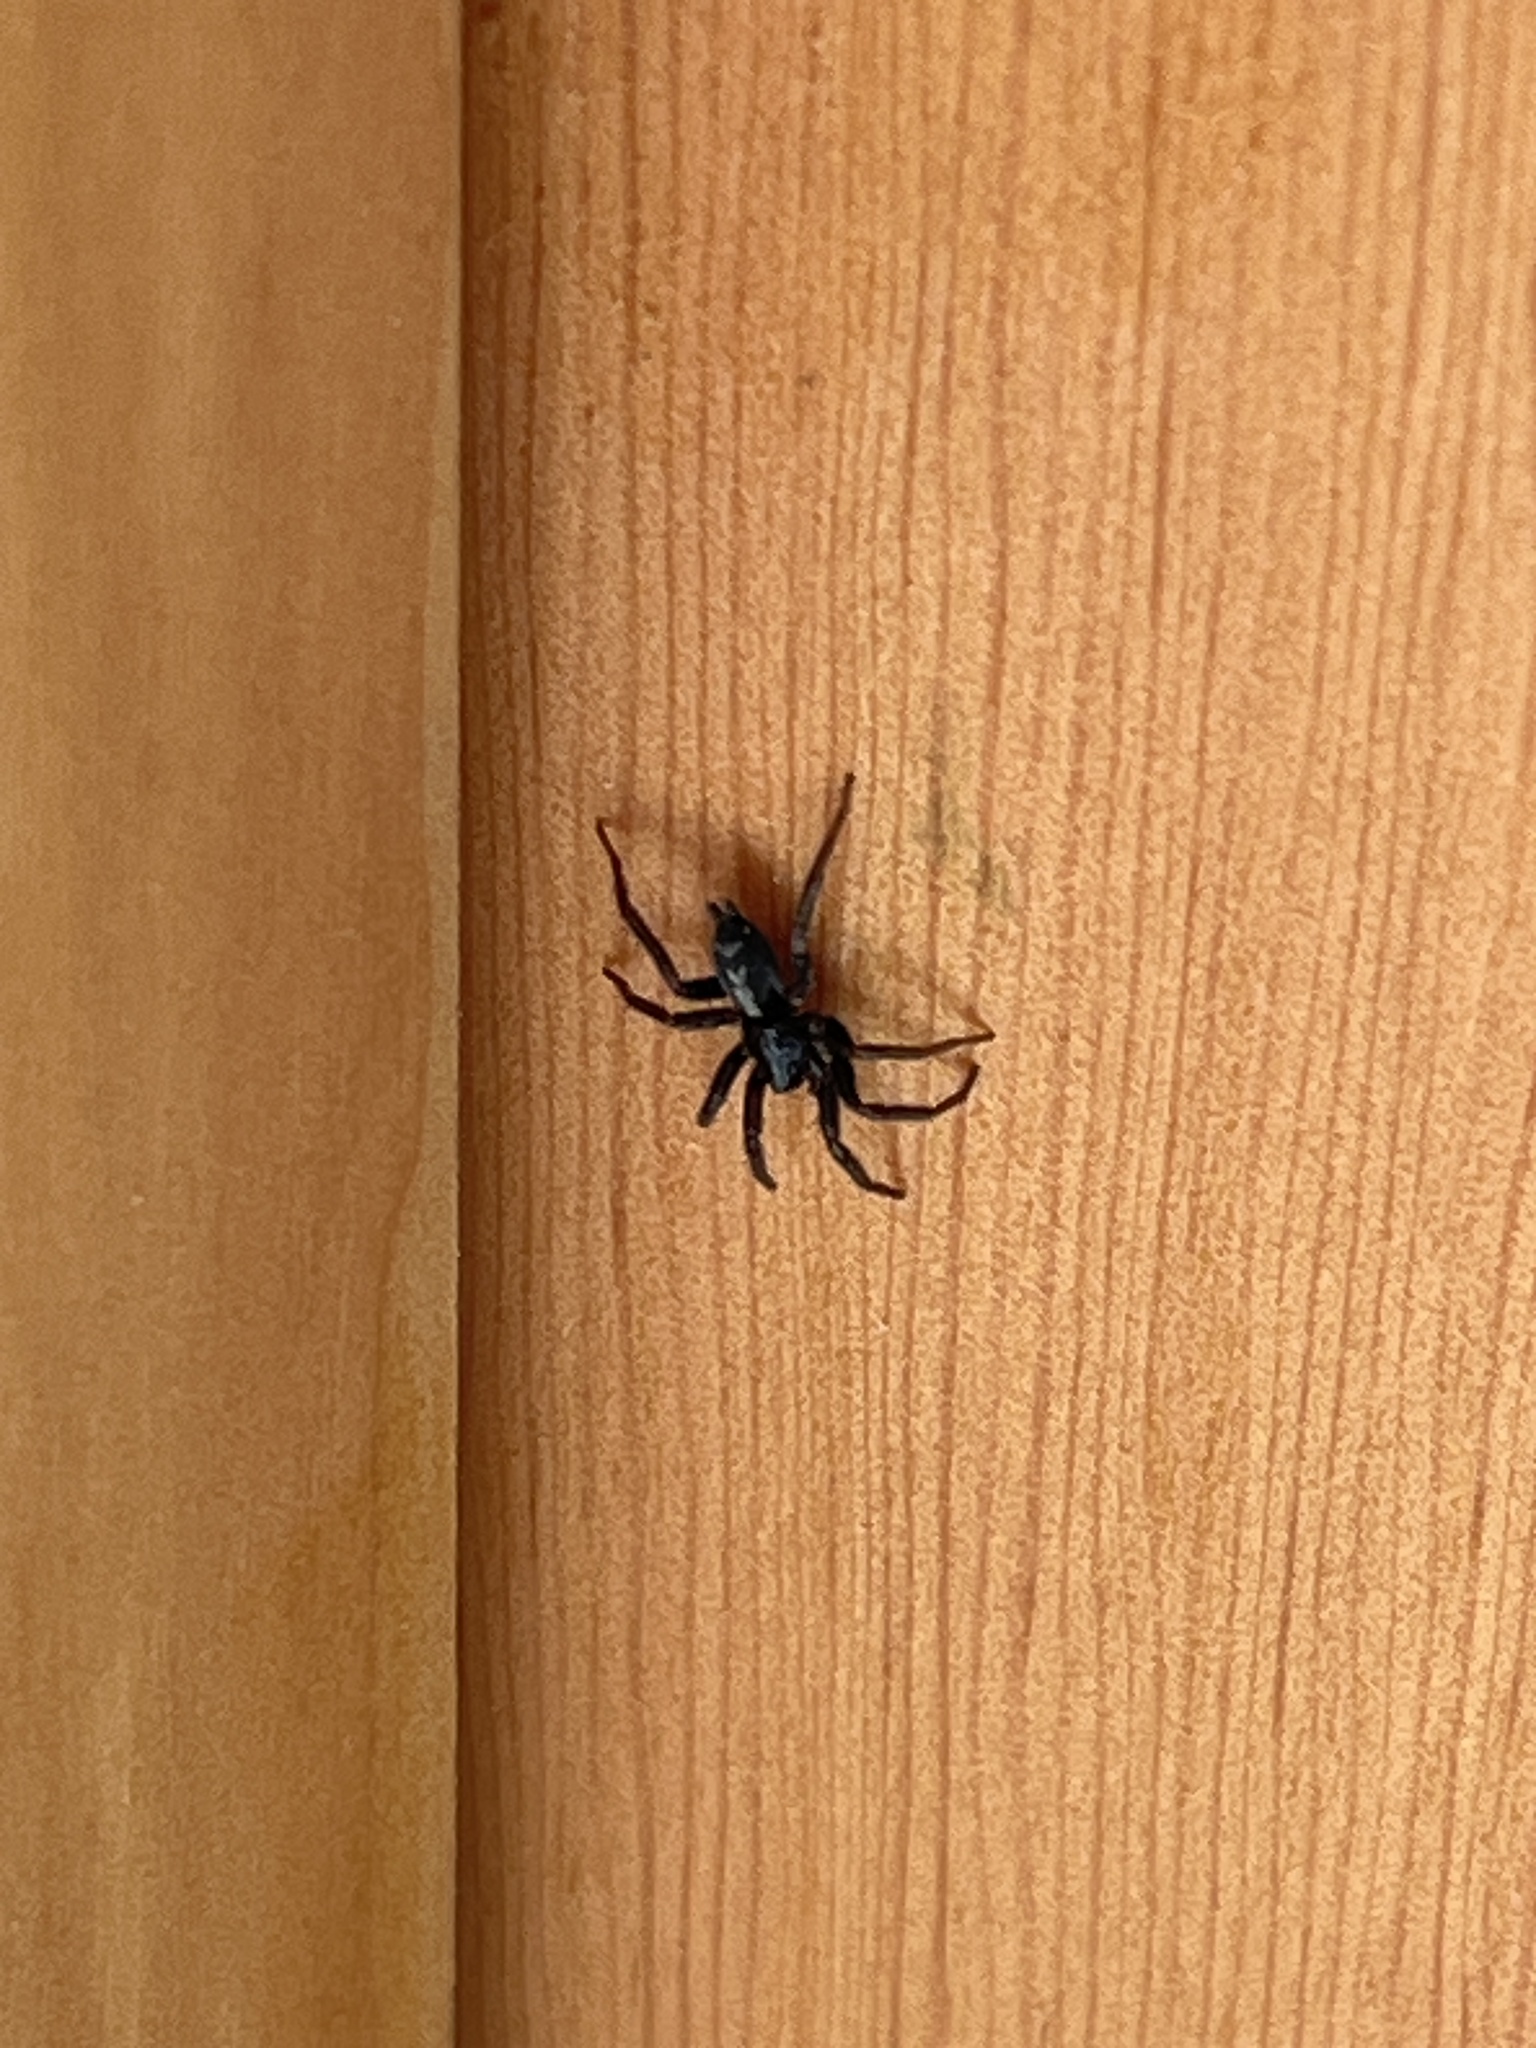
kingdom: Animalia
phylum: Arthropoda
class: Arachnida
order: Araneae
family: Gnaphosidae
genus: Herpyllus
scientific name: Herpyllus ecclesiasticus
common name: Eastern parson spider
